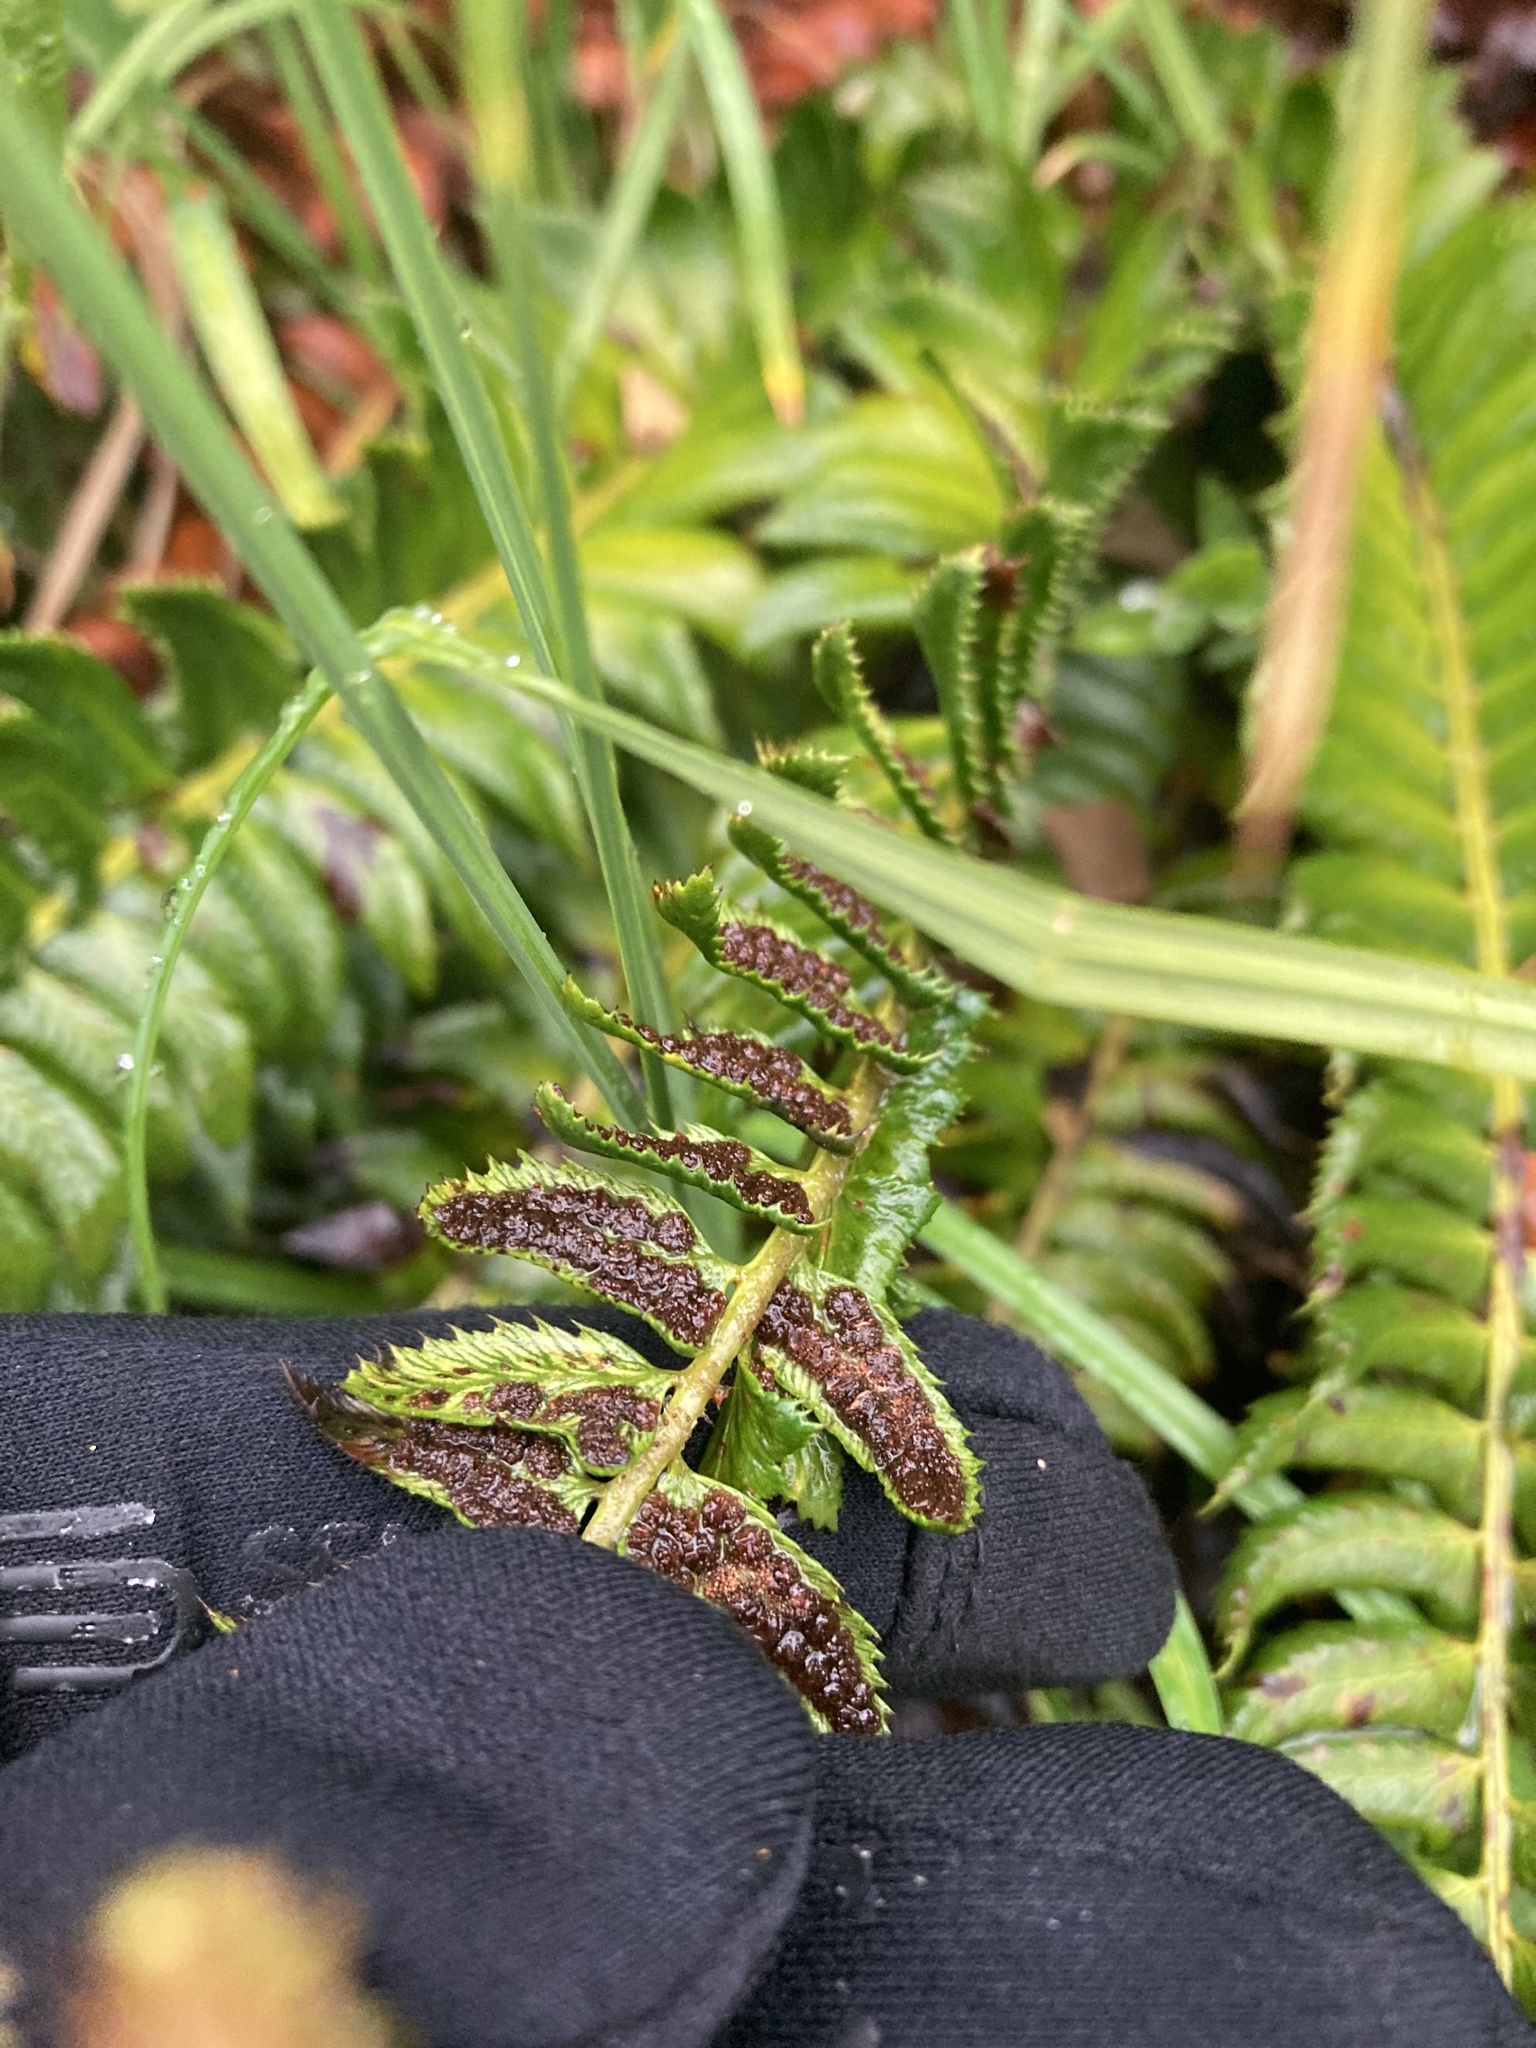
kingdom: Plantae
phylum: Tracheophyta
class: Polypodiopsida
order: Polypodiales
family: Dryopteridaceae
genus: Polystichum
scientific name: Polystichum lonchitis
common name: Holly fern
